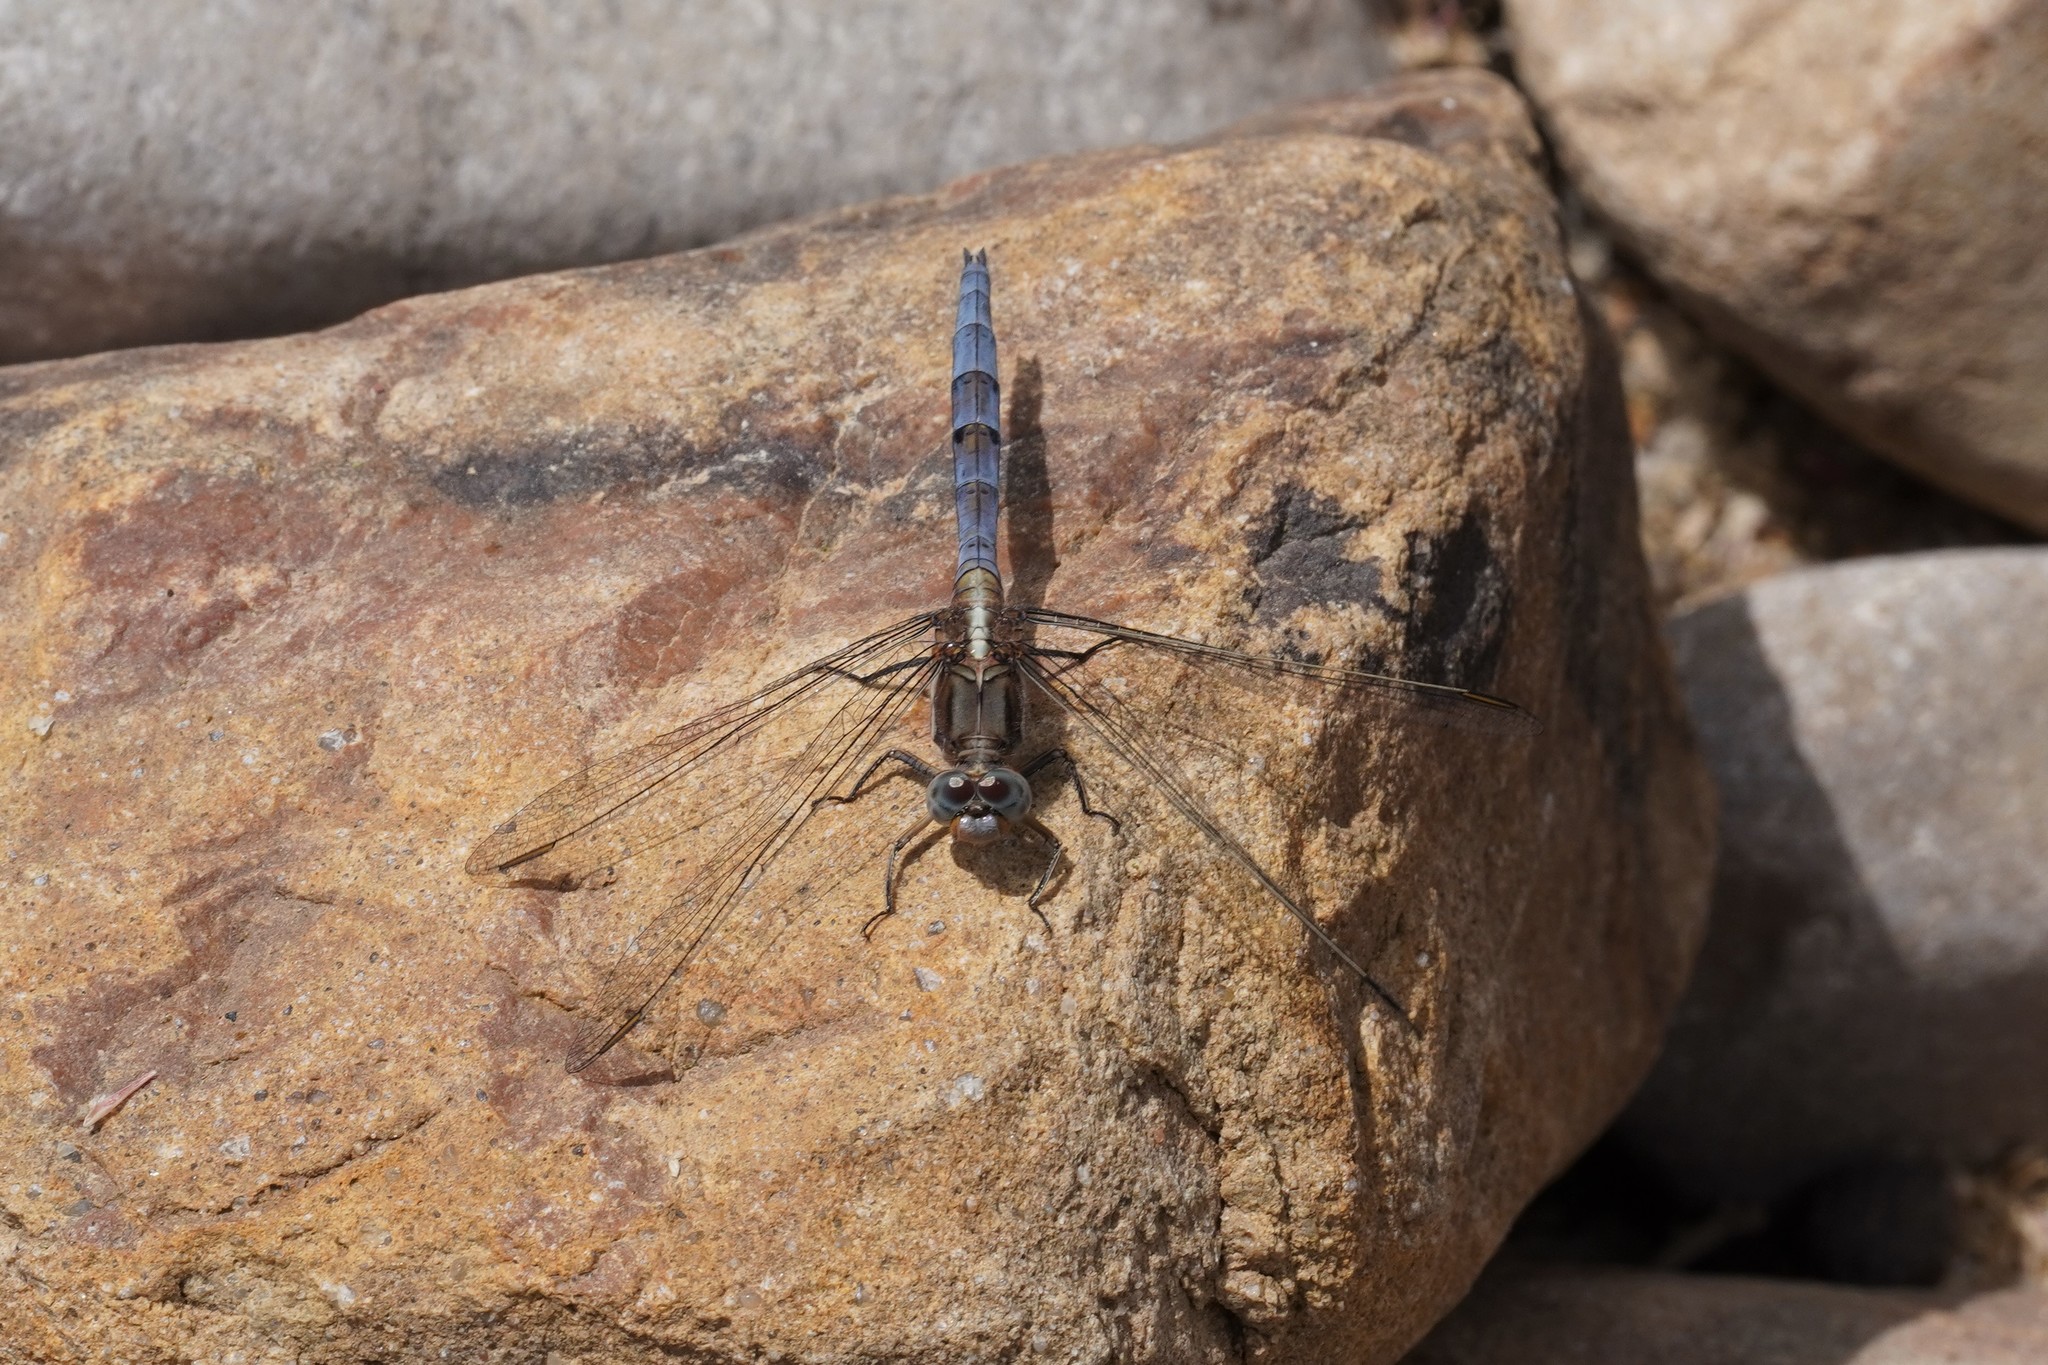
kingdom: Animalia
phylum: Arthropoda
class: Insecta
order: Odonata
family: Libellulidae
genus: Orthetrum
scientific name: Orthetrum chrysostigma
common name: Epaulet skimmer
